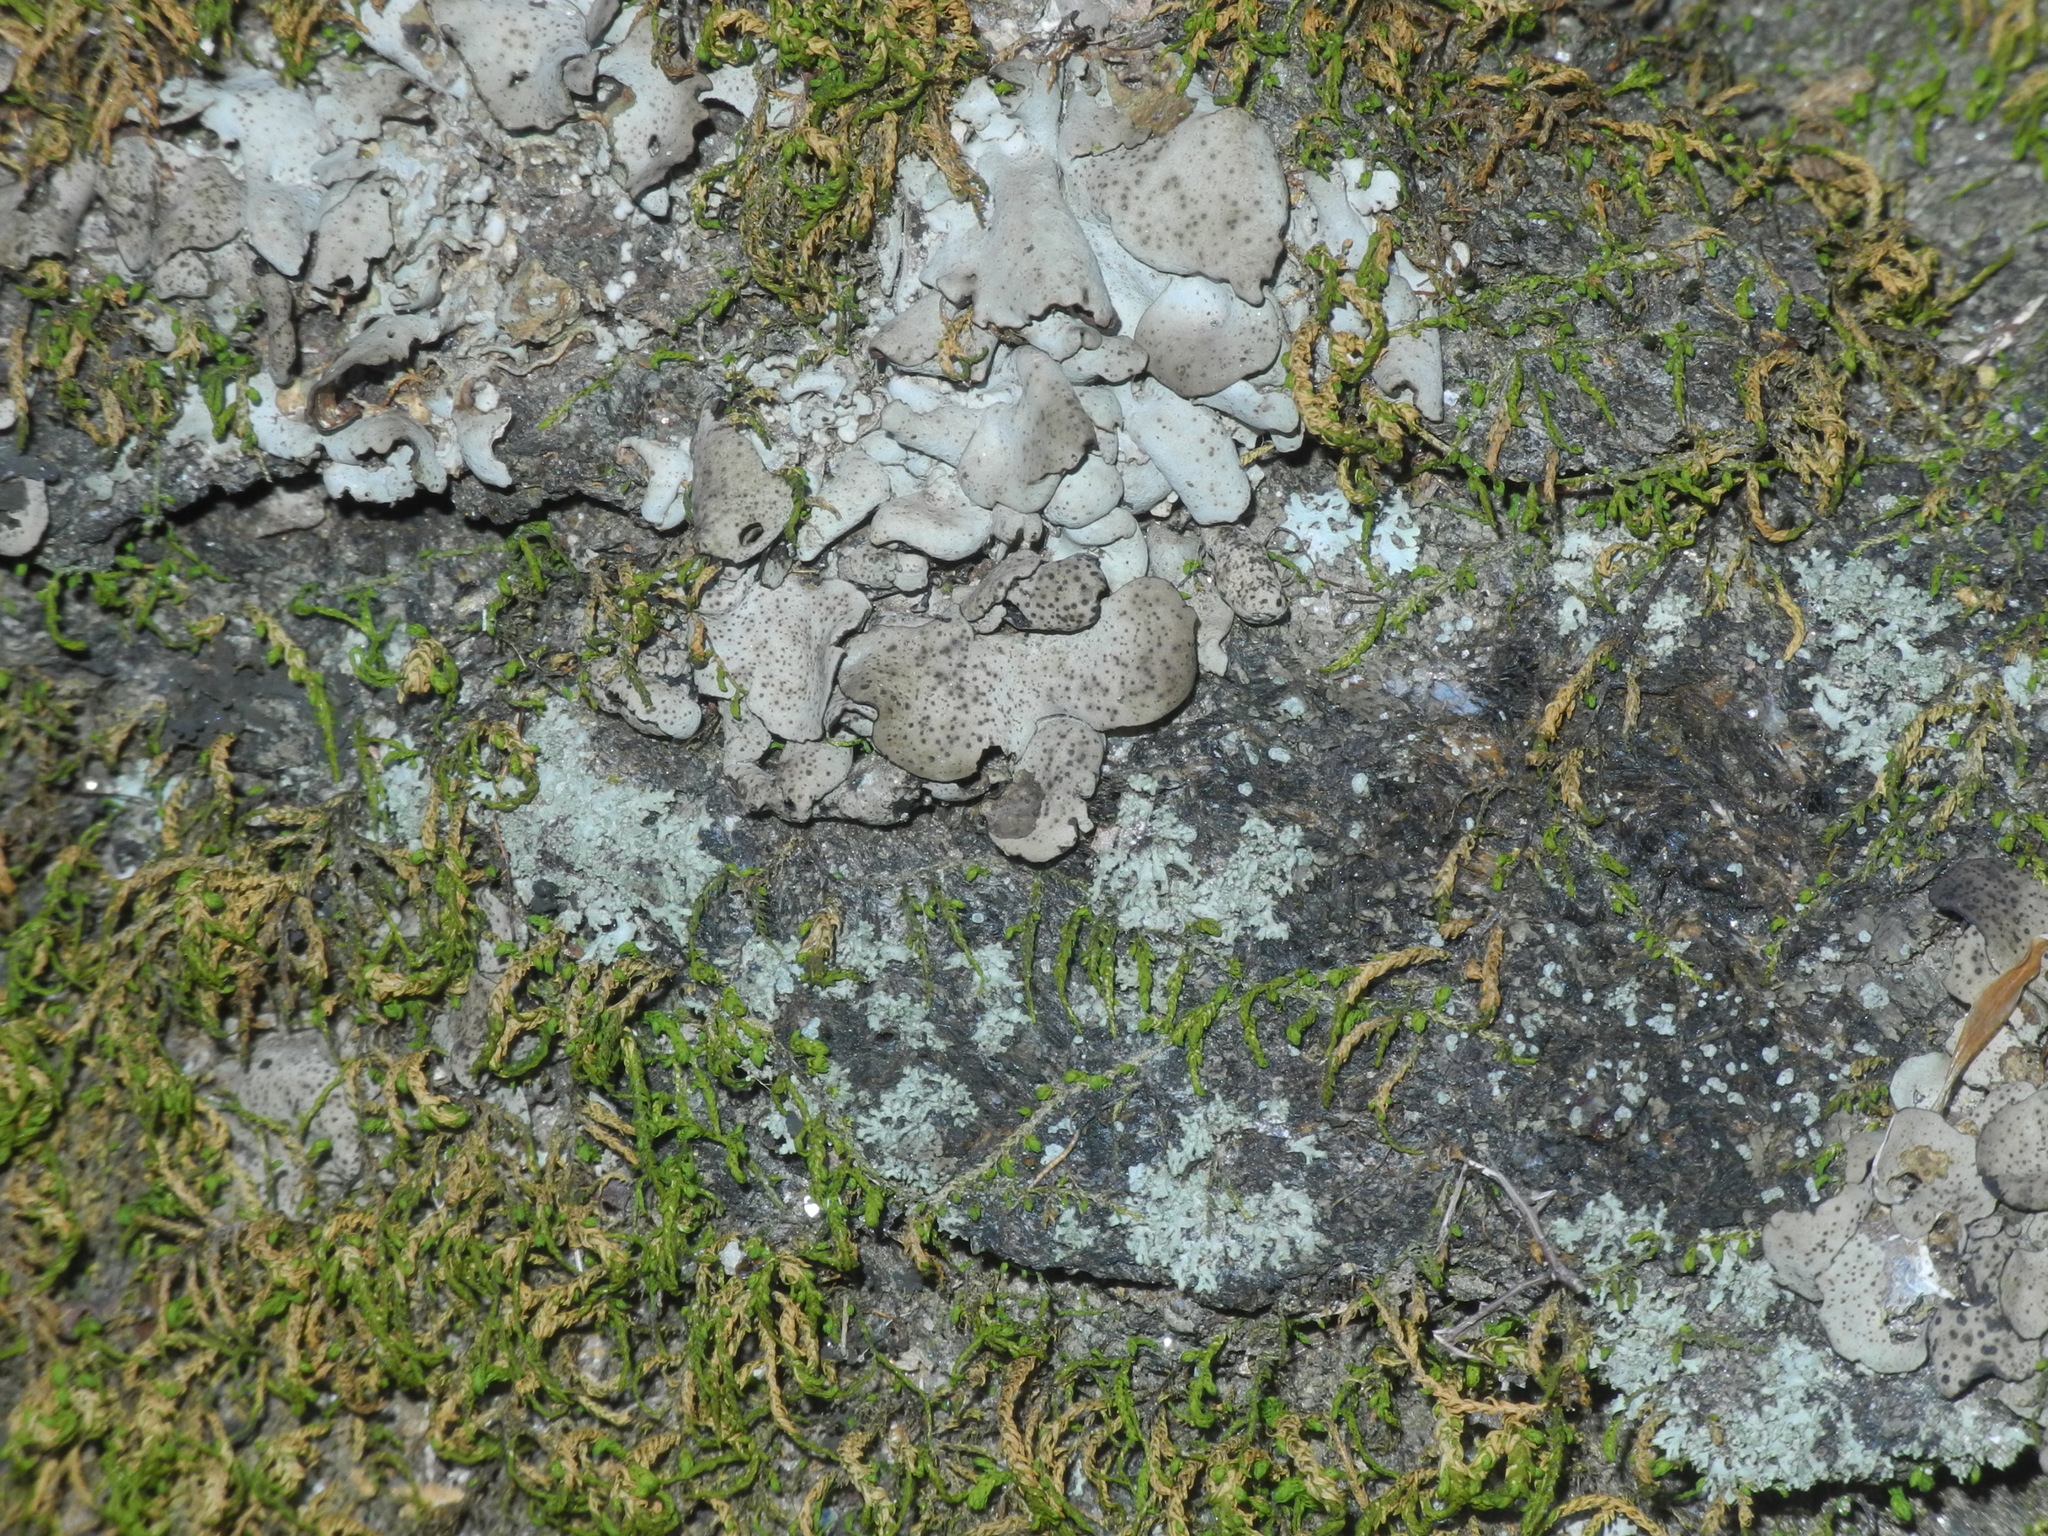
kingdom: Fungi
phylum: Ascomycota
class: Eurotiomycetes
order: Verrucariales
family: Verrucariaceae
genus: Dermatocarpon
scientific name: Dermatocarpon muhlenbergii
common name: Muhlenberg's stippleback lichen
